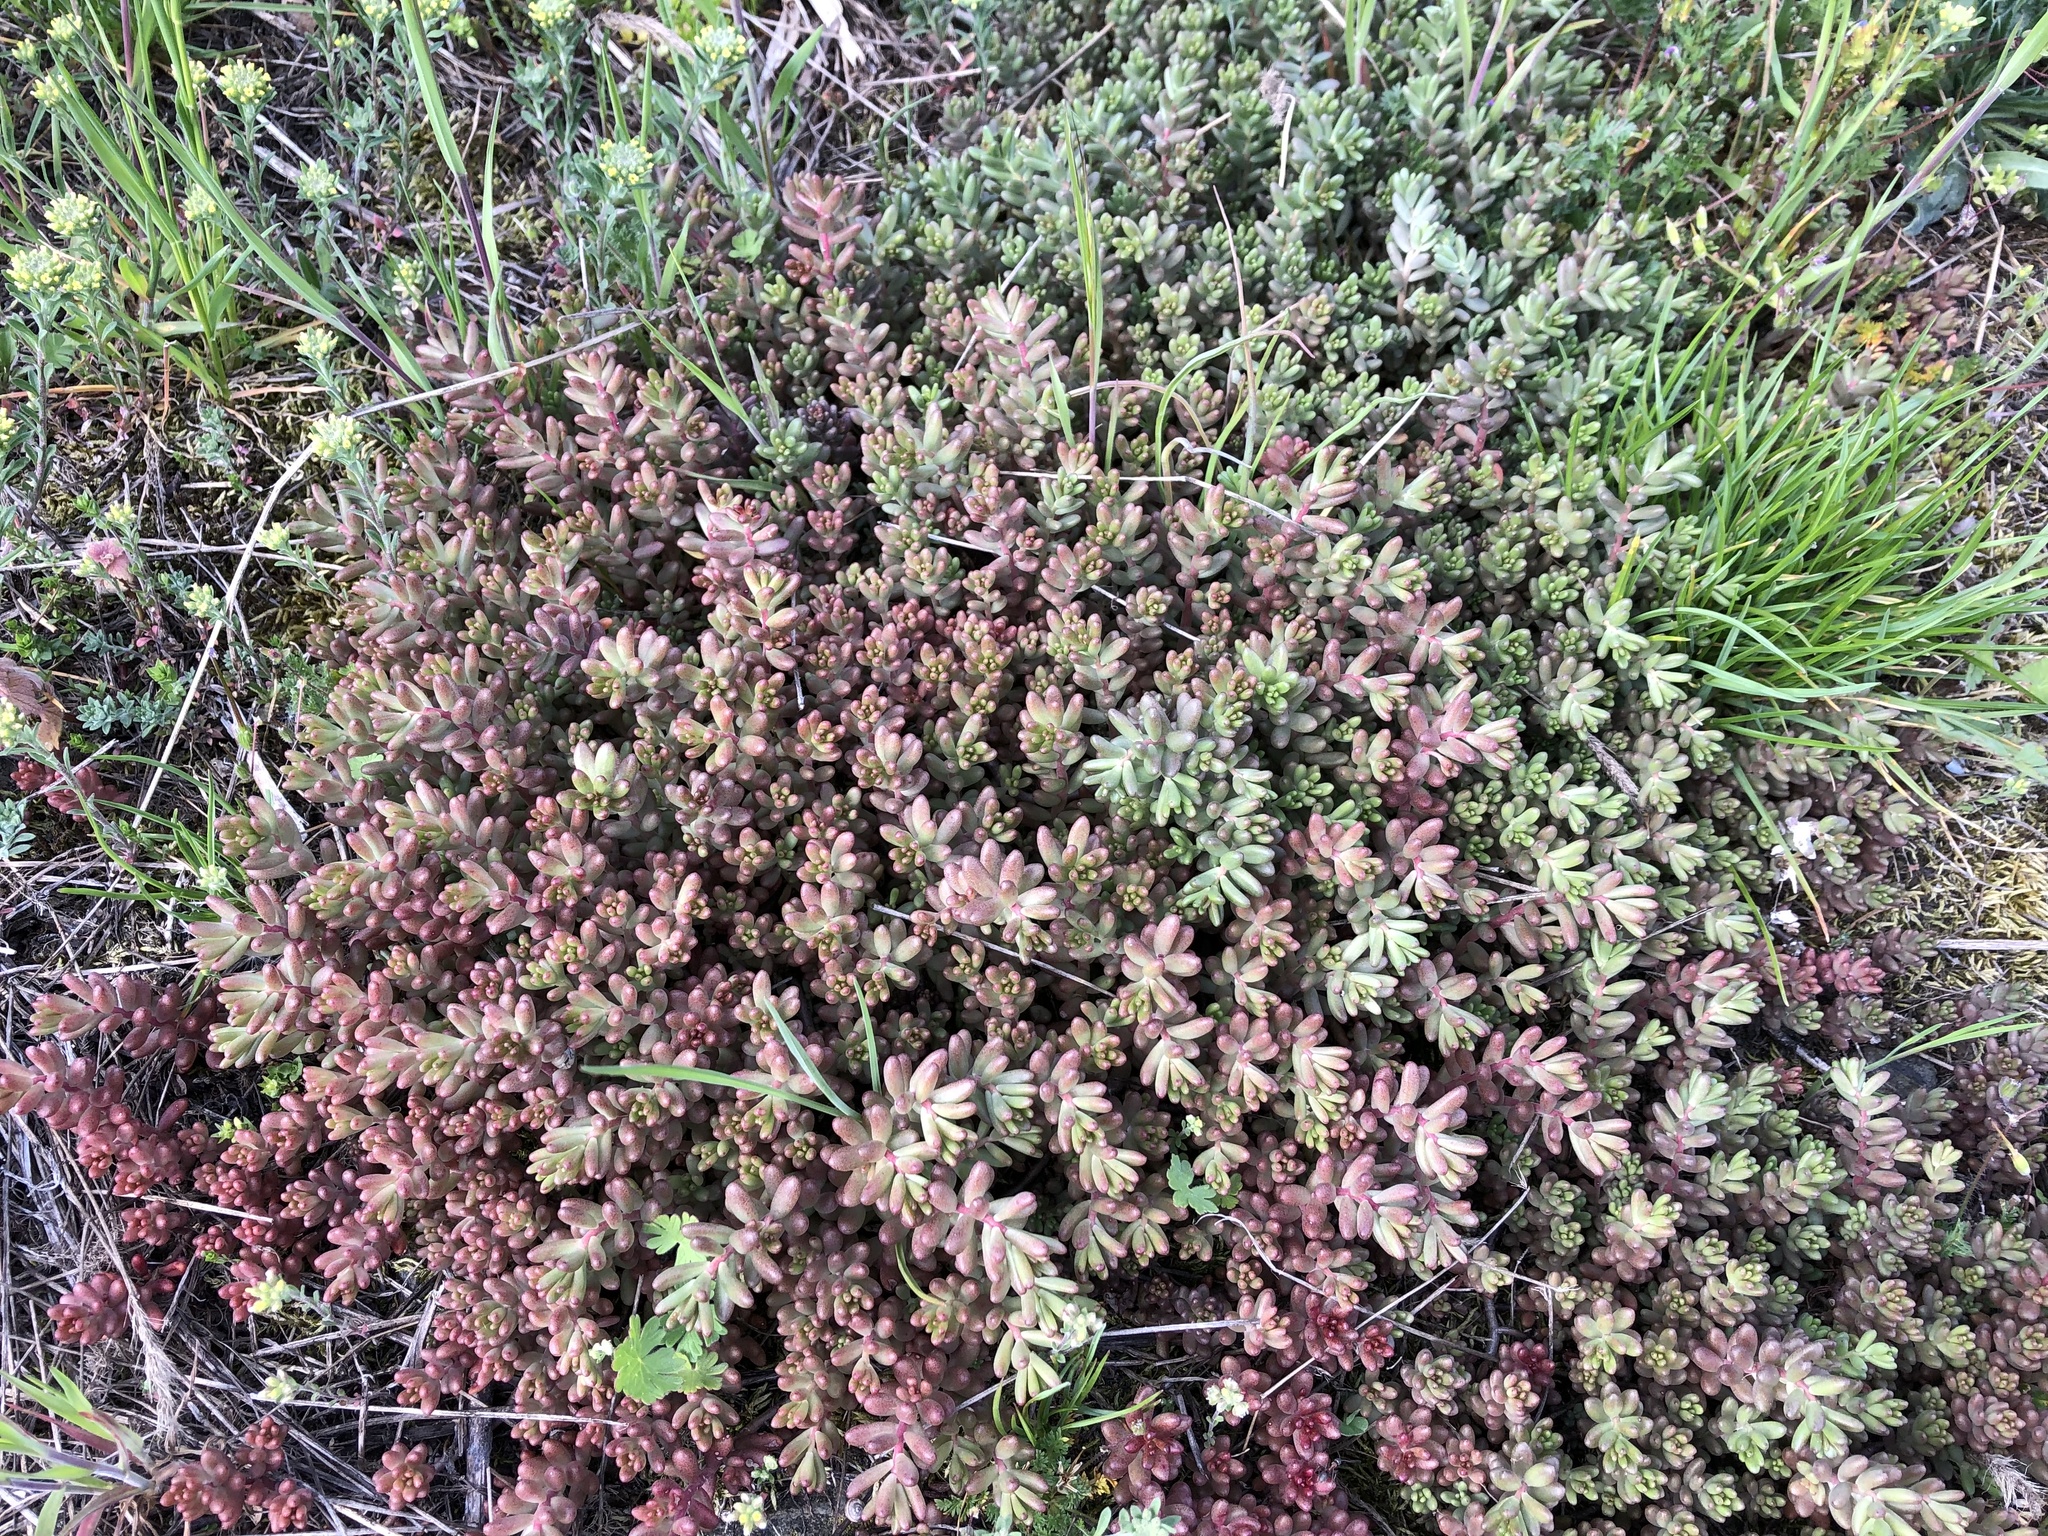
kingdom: Plantae
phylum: Tracheophyta
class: Magnoliopsida
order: Saxifragales
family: Crassulaceae
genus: Sedum
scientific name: Sedum album
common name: White stonecrop
